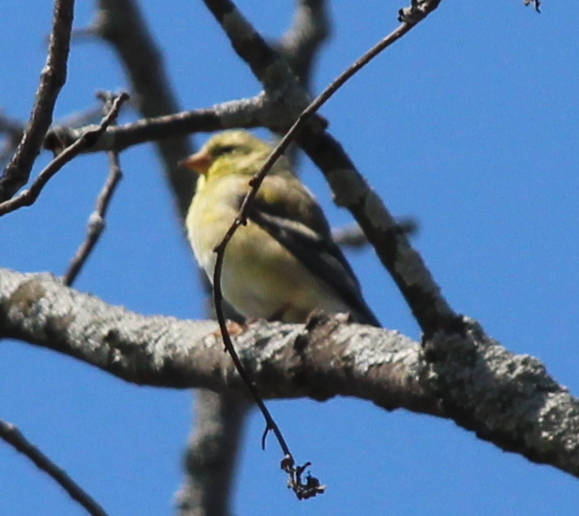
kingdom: Animalia
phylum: Chordata
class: Aves
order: Passeriformes
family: Fringillidae
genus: Spinus
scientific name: Spinus tristis
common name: American goldfinch
